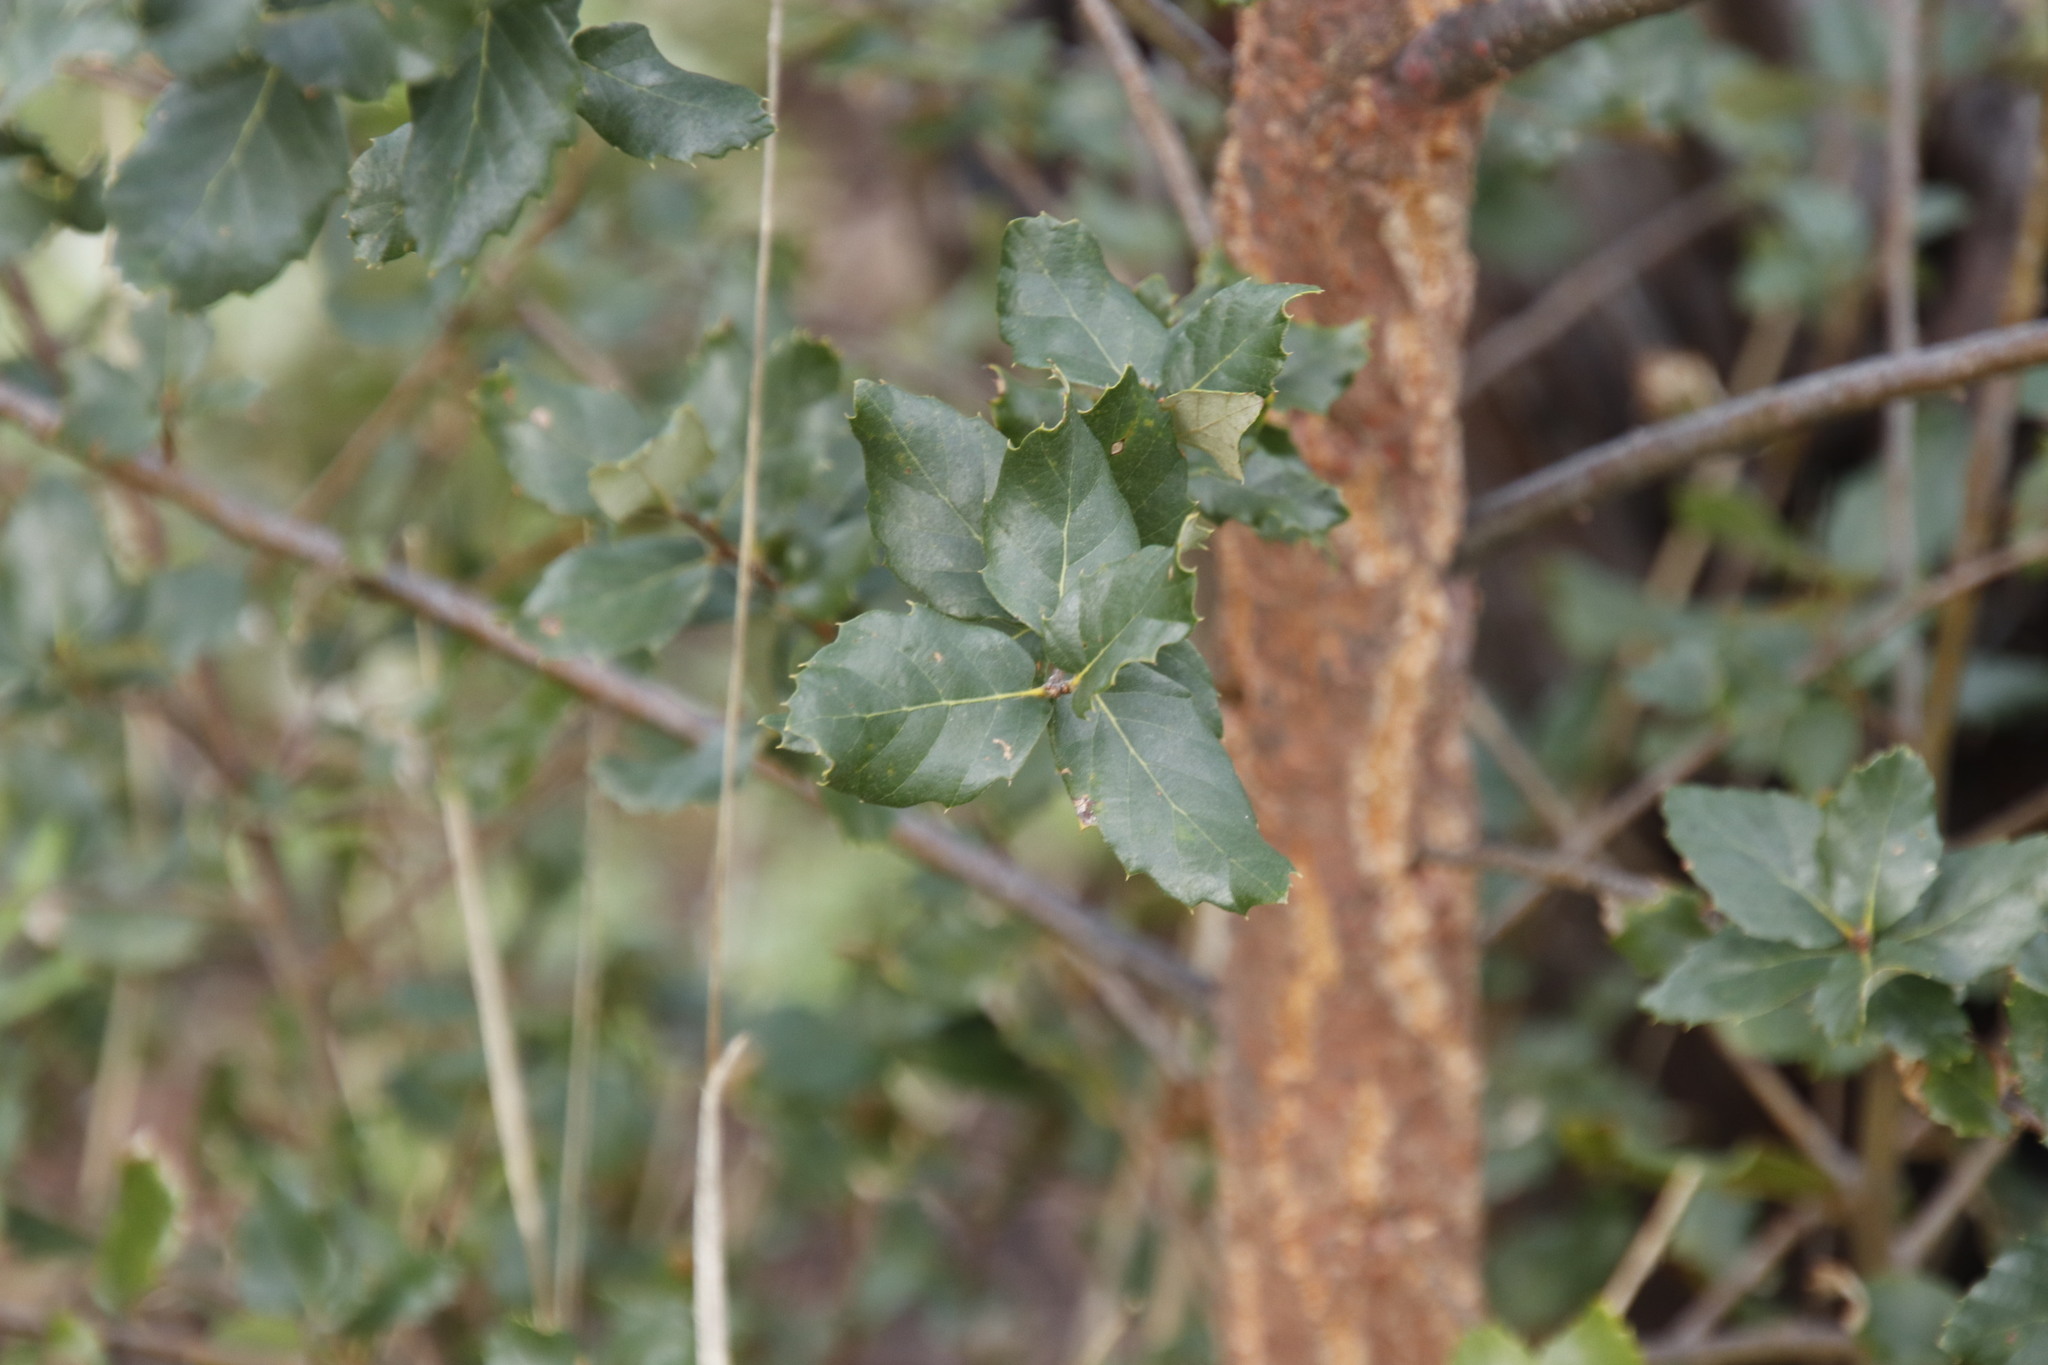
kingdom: Plantae
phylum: Tracheophyta
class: Magnoliopsida
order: Fagales
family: Fagaceae
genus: Quercus
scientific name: Quercus suber
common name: Cork oak
